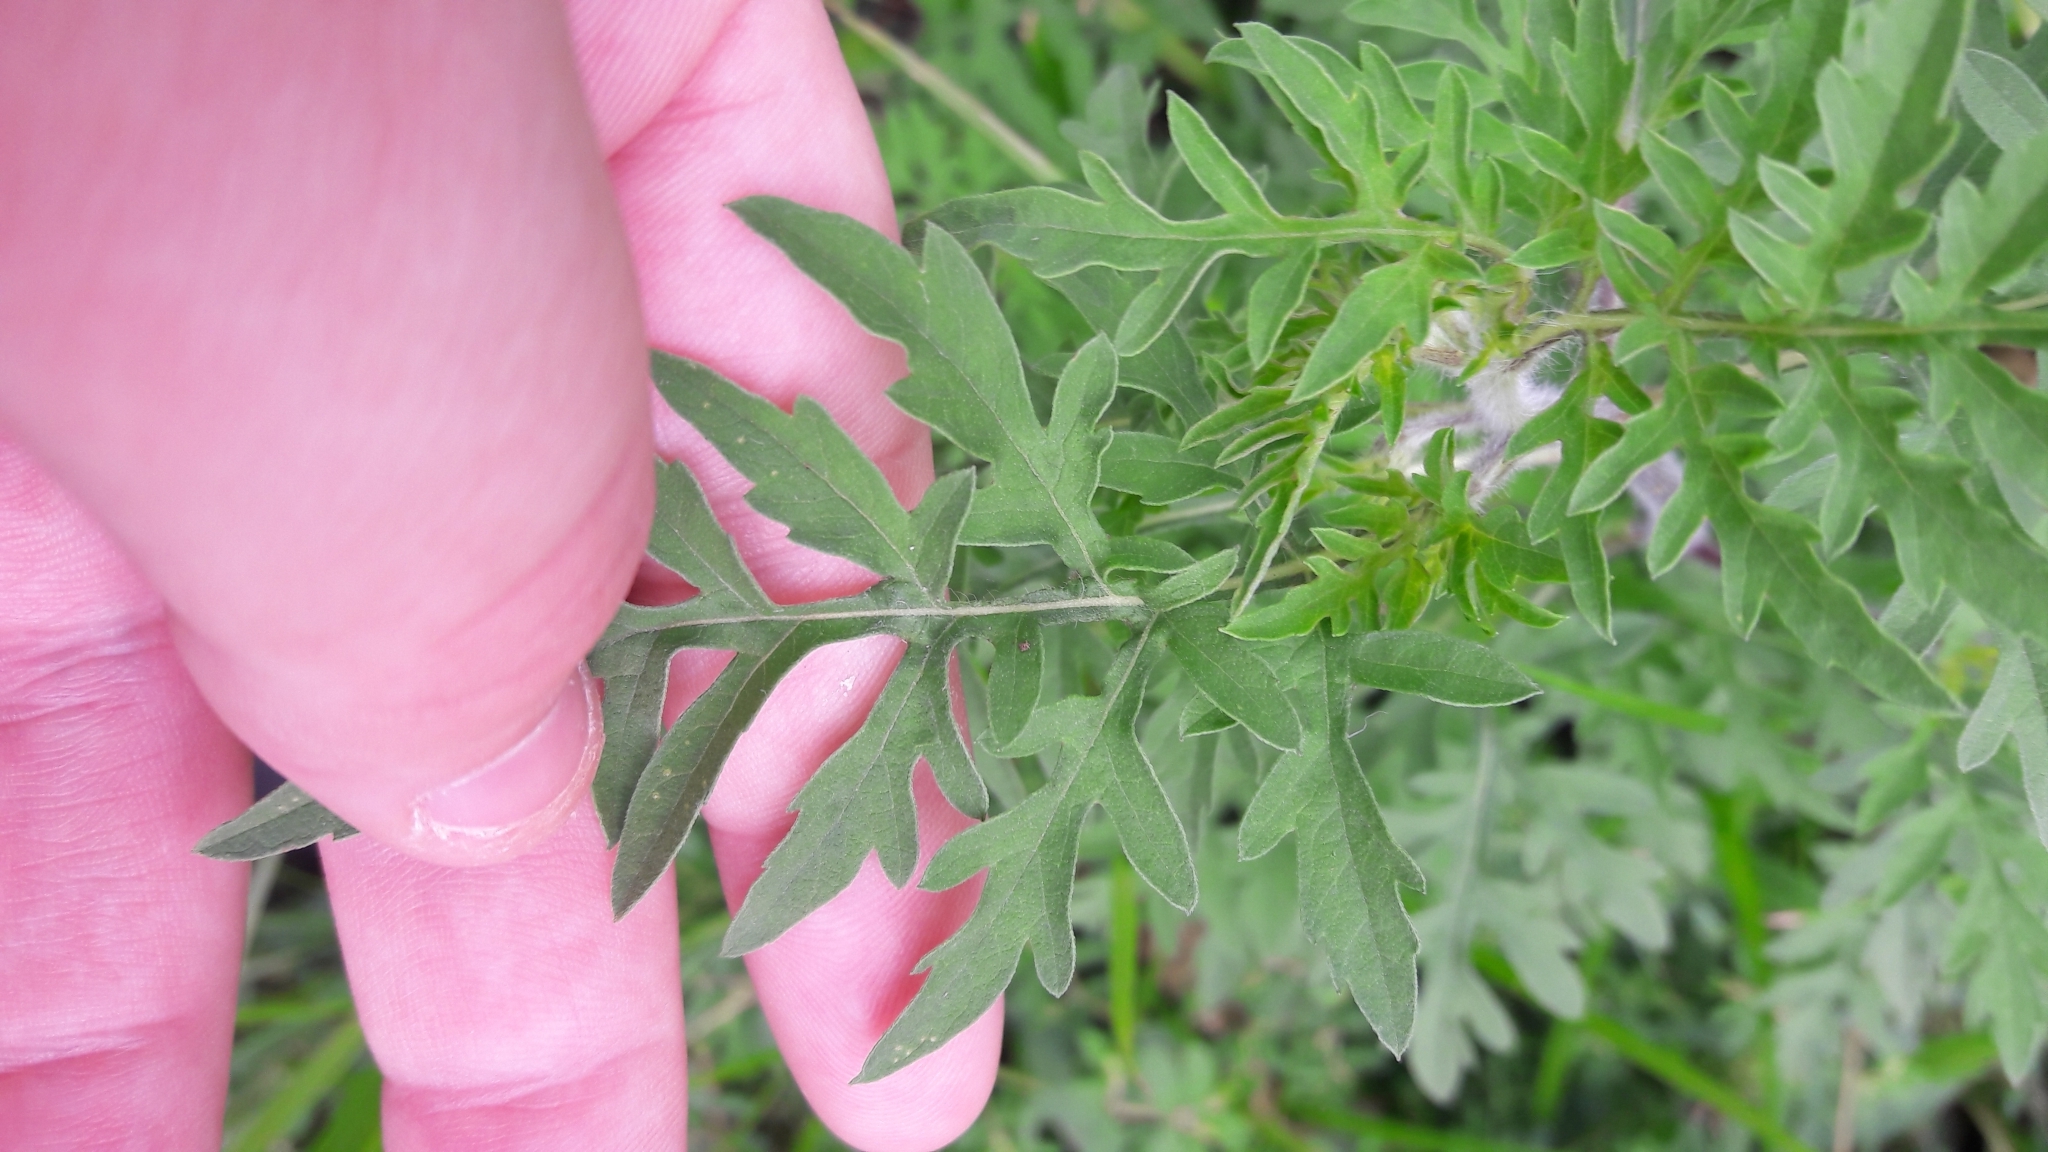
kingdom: Plantae
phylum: Tracheophyta
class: Magnoliopsida
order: Asterales
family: Asteraceae
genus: Ambrosia
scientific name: Ambrosia artemisiifolia
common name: Annual ragweed
